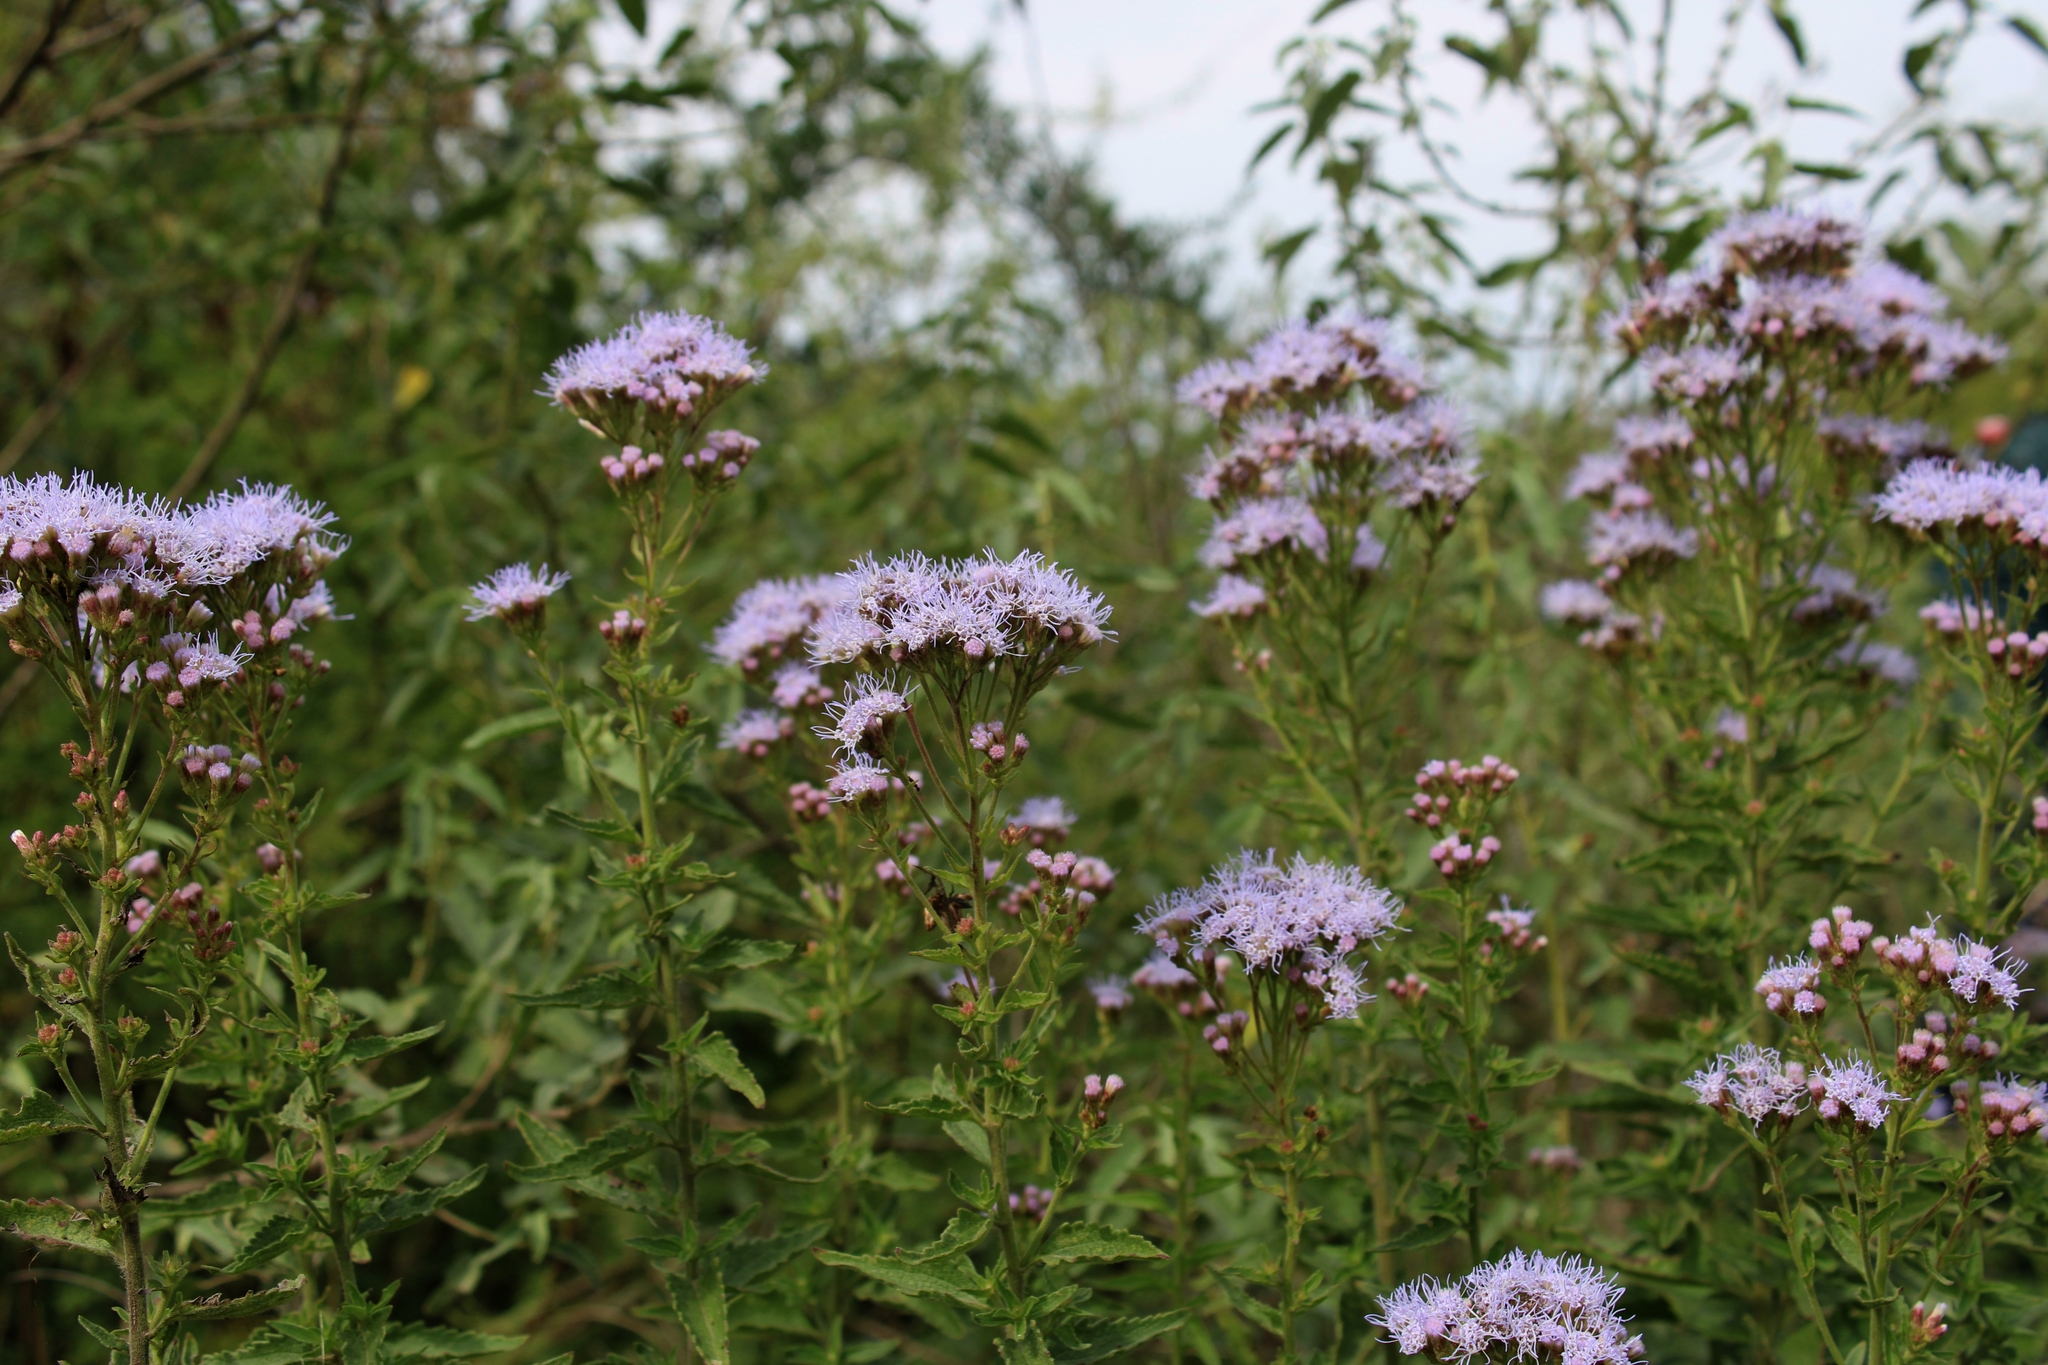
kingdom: Plantae
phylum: Tracheophyta
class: Magnoliopsida
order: Asterales
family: Asteraceae
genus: Chromolaena
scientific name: Chromolaena ivifolia
